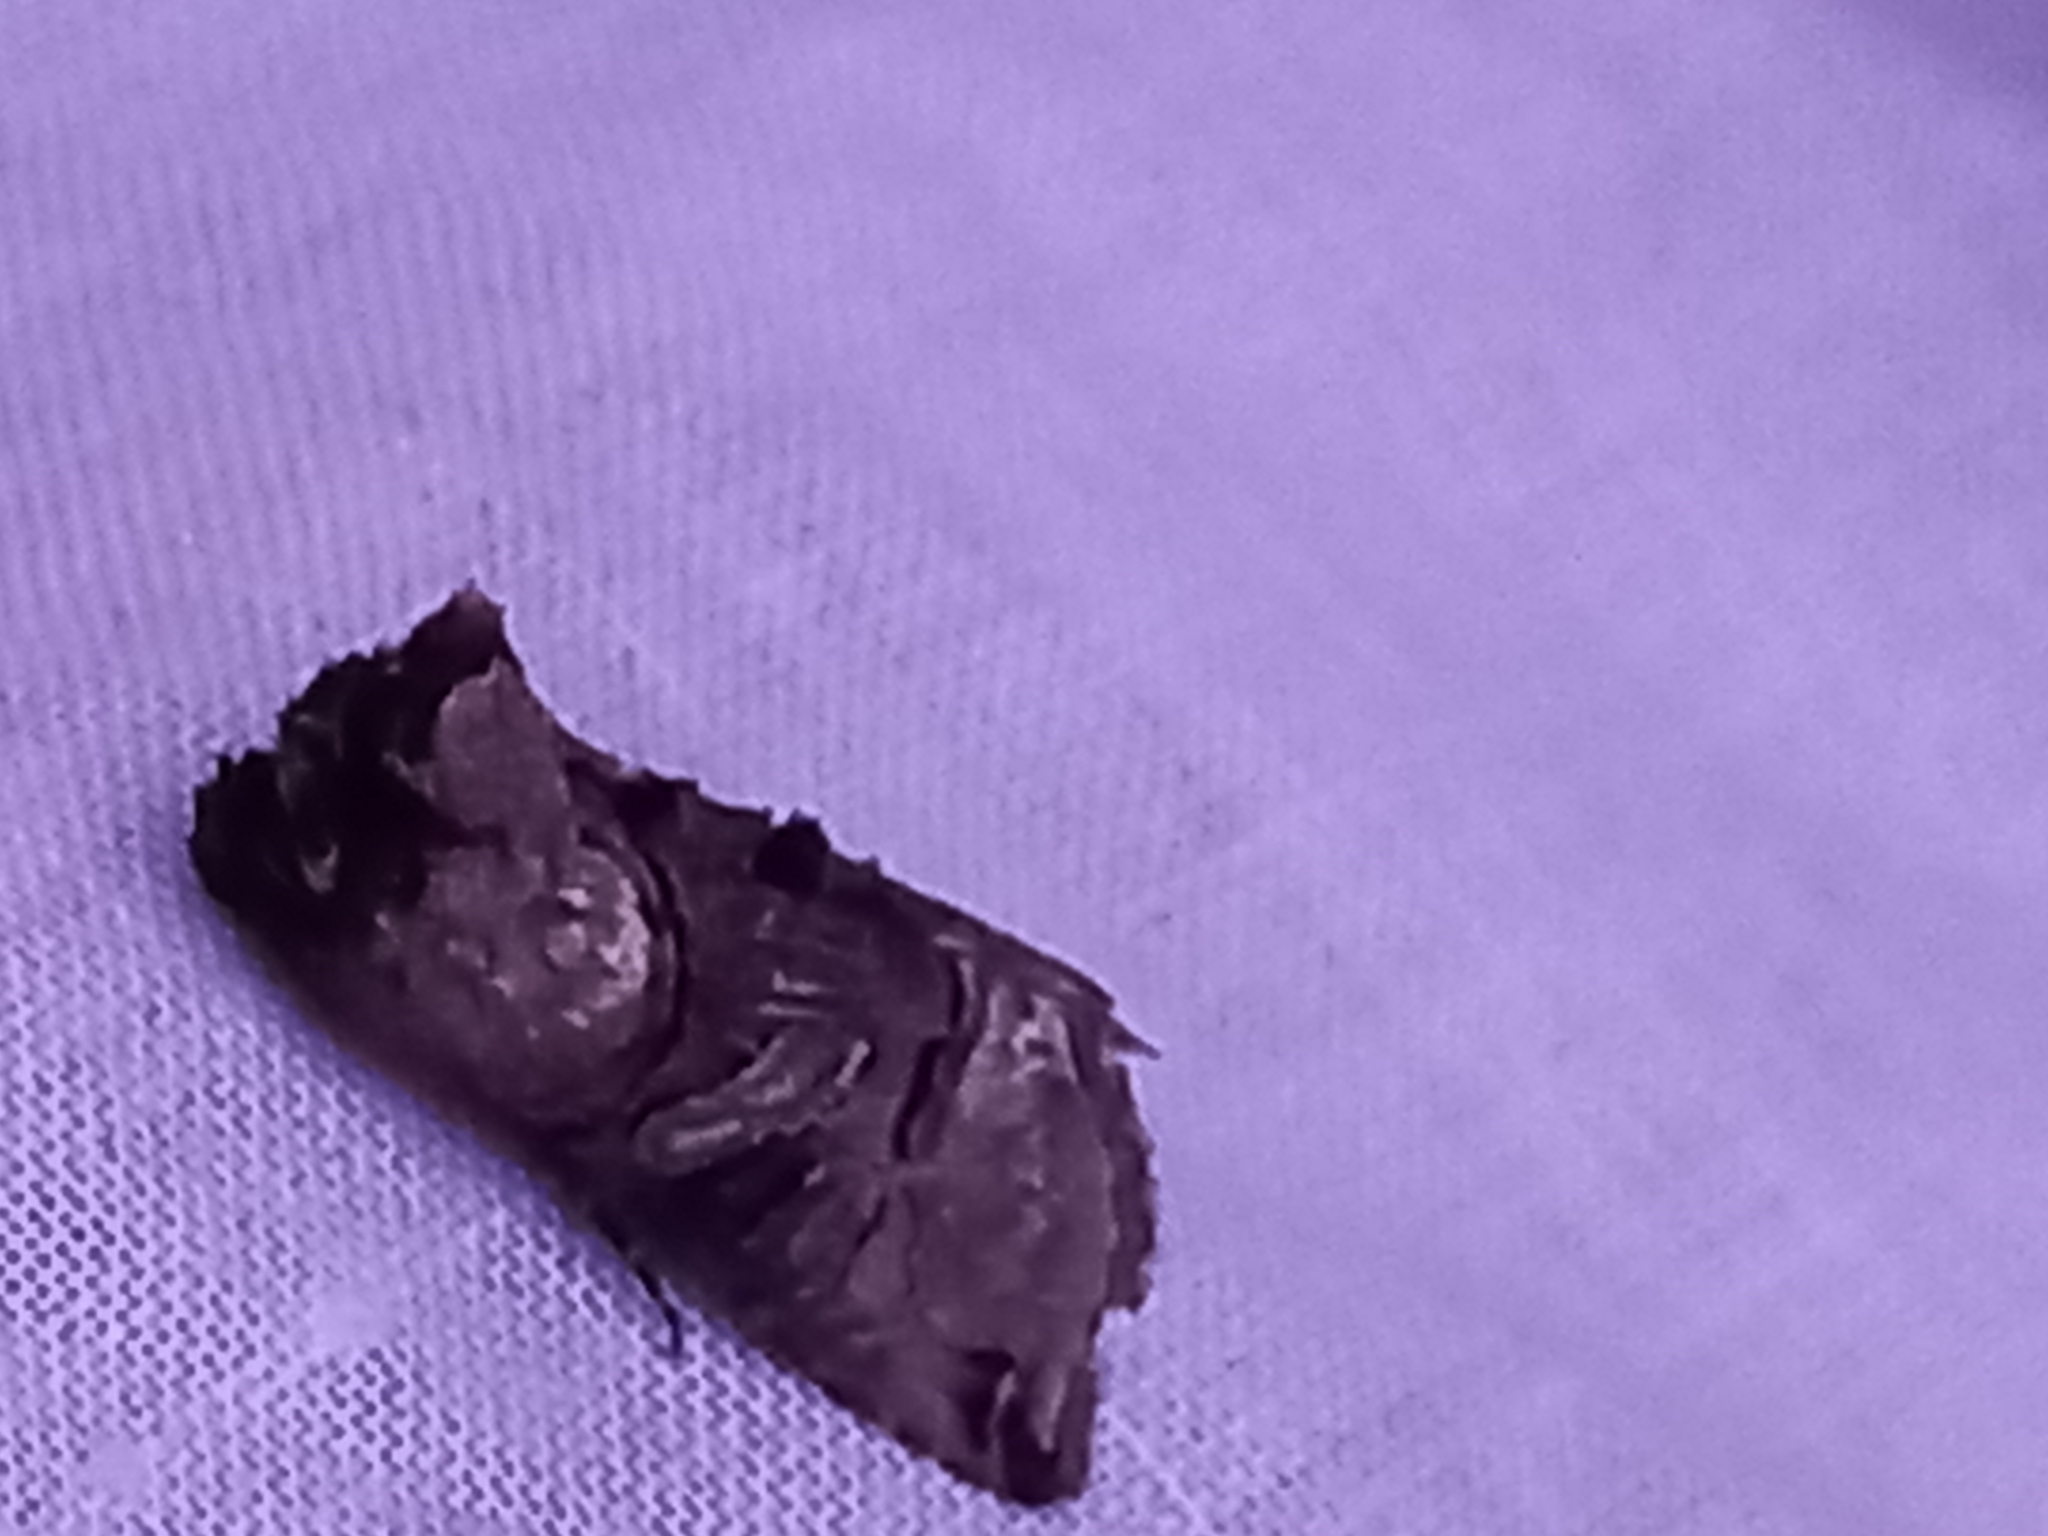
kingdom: Animalia
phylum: Arthropoda
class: Insecta
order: Lepidoptera
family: Noctuidae
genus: Abrostola
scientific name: Abrostola tripartita
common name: Spectacle
